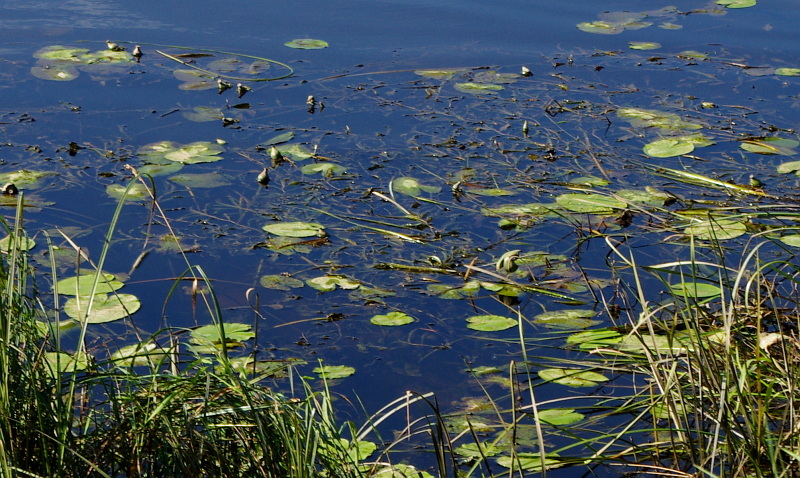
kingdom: Plantae
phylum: Tracheophyta
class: Magnoliopsida
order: Nymphaeales
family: Nymphaeaceae
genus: Nuphar
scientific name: Nuphar lutea
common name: Yellow water-lily
